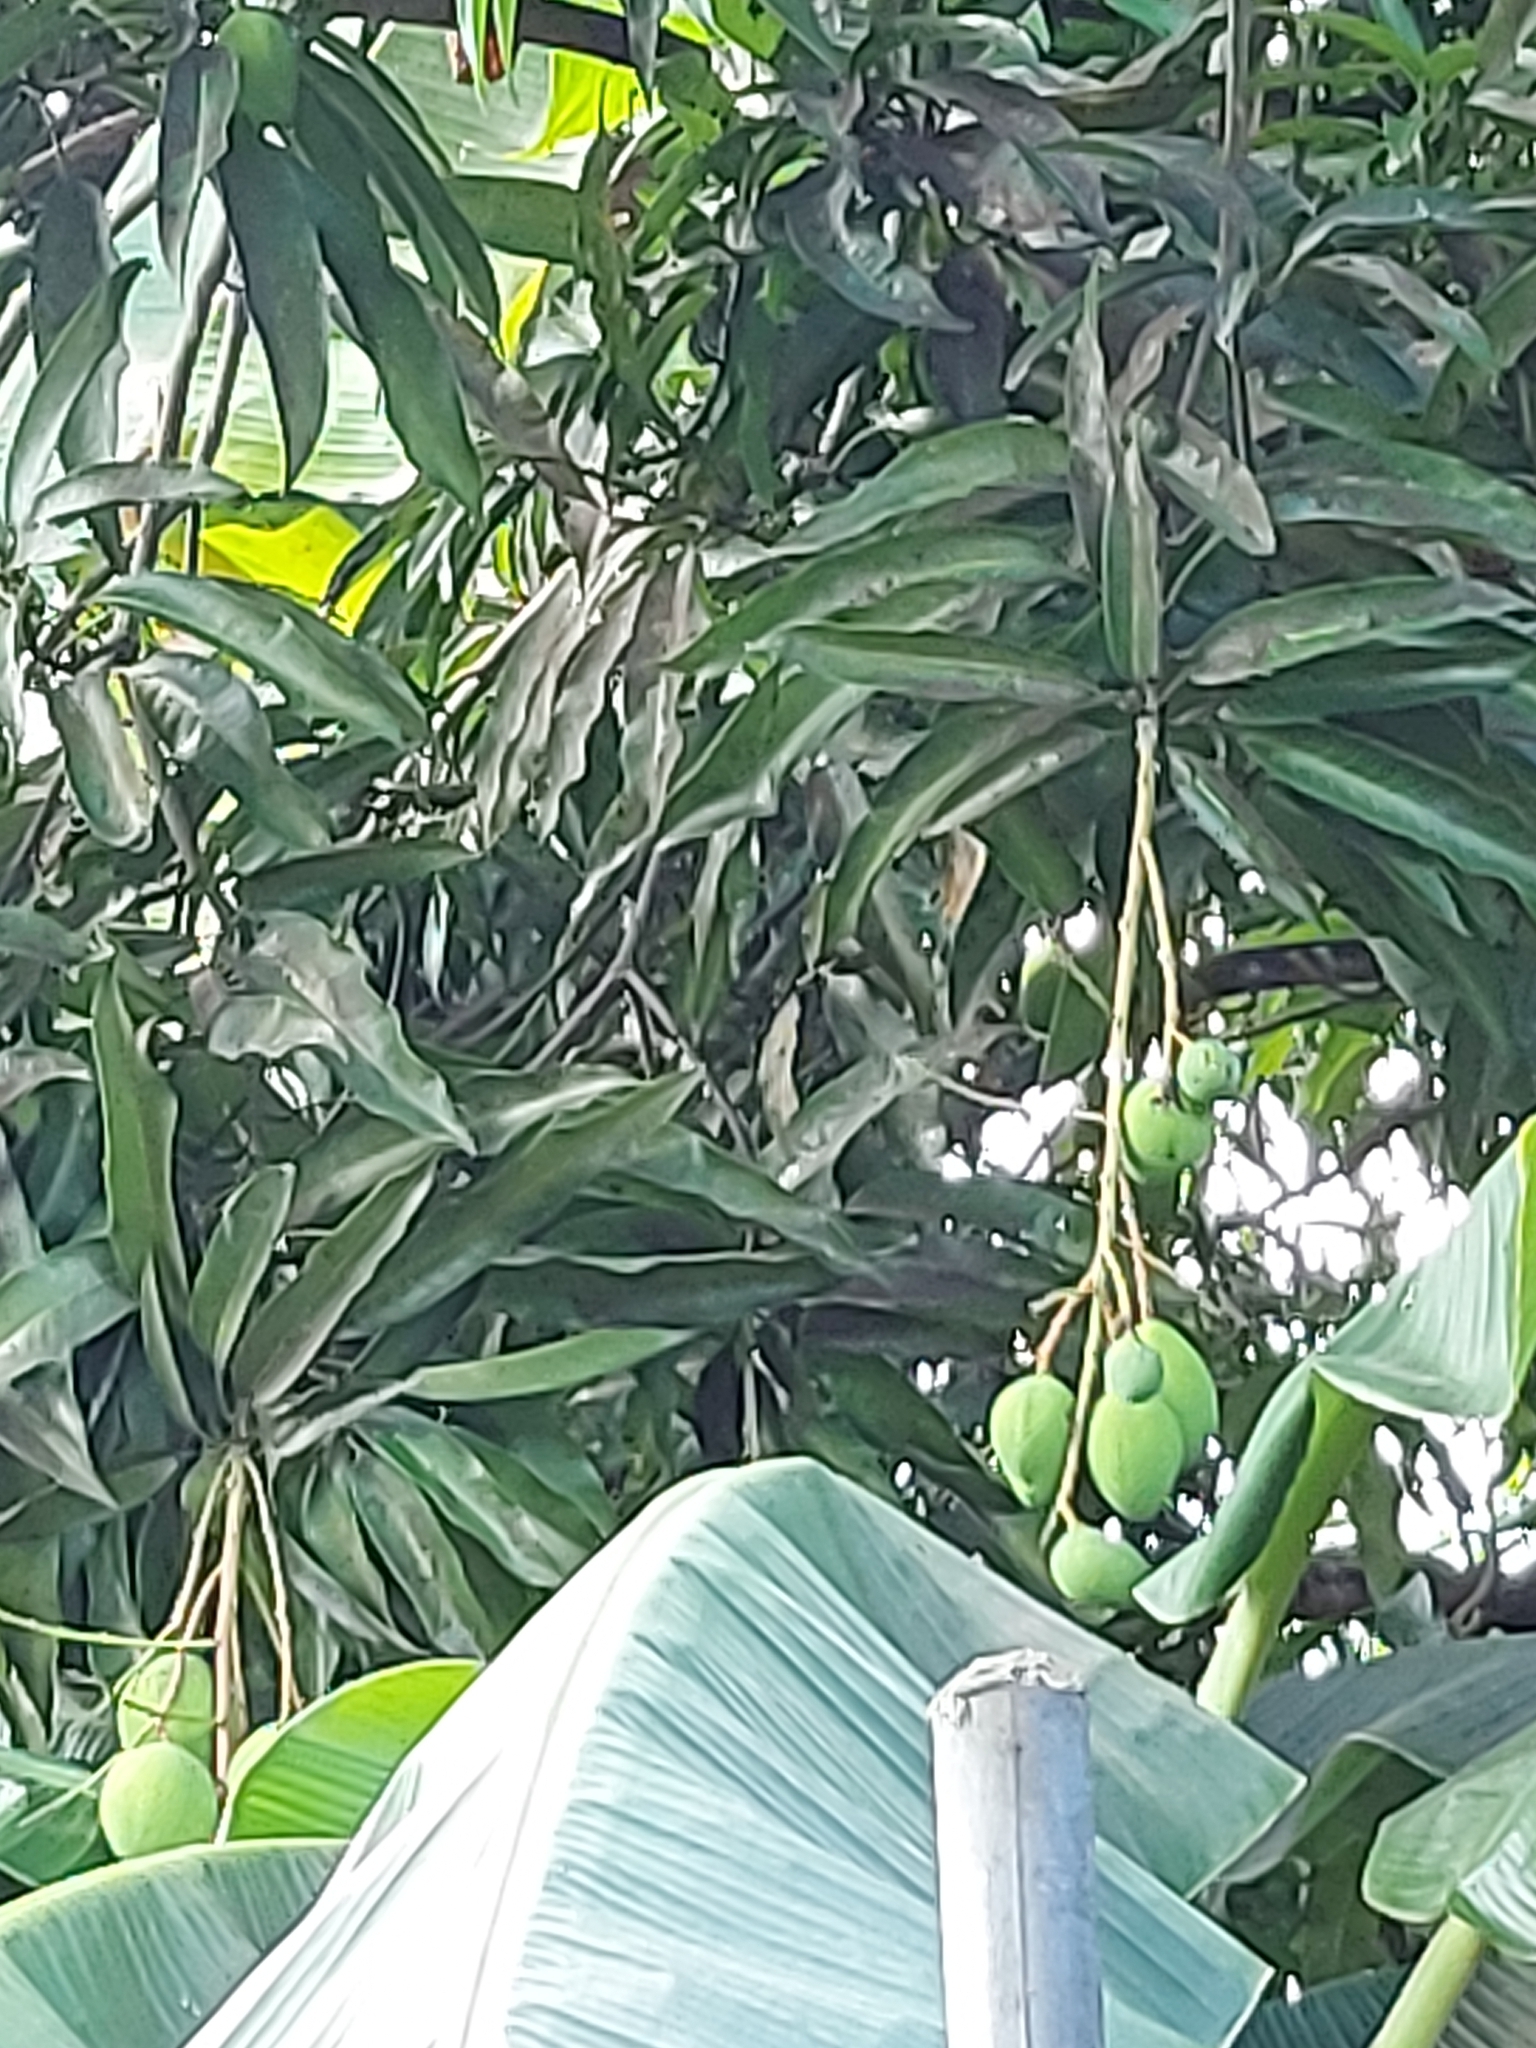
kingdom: Plantae
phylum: Tracheophyta
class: Magnoliopsida
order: Sapindales
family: Anacardiaceae
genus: Mangifera
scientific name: Mangifera indica
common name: Mango
